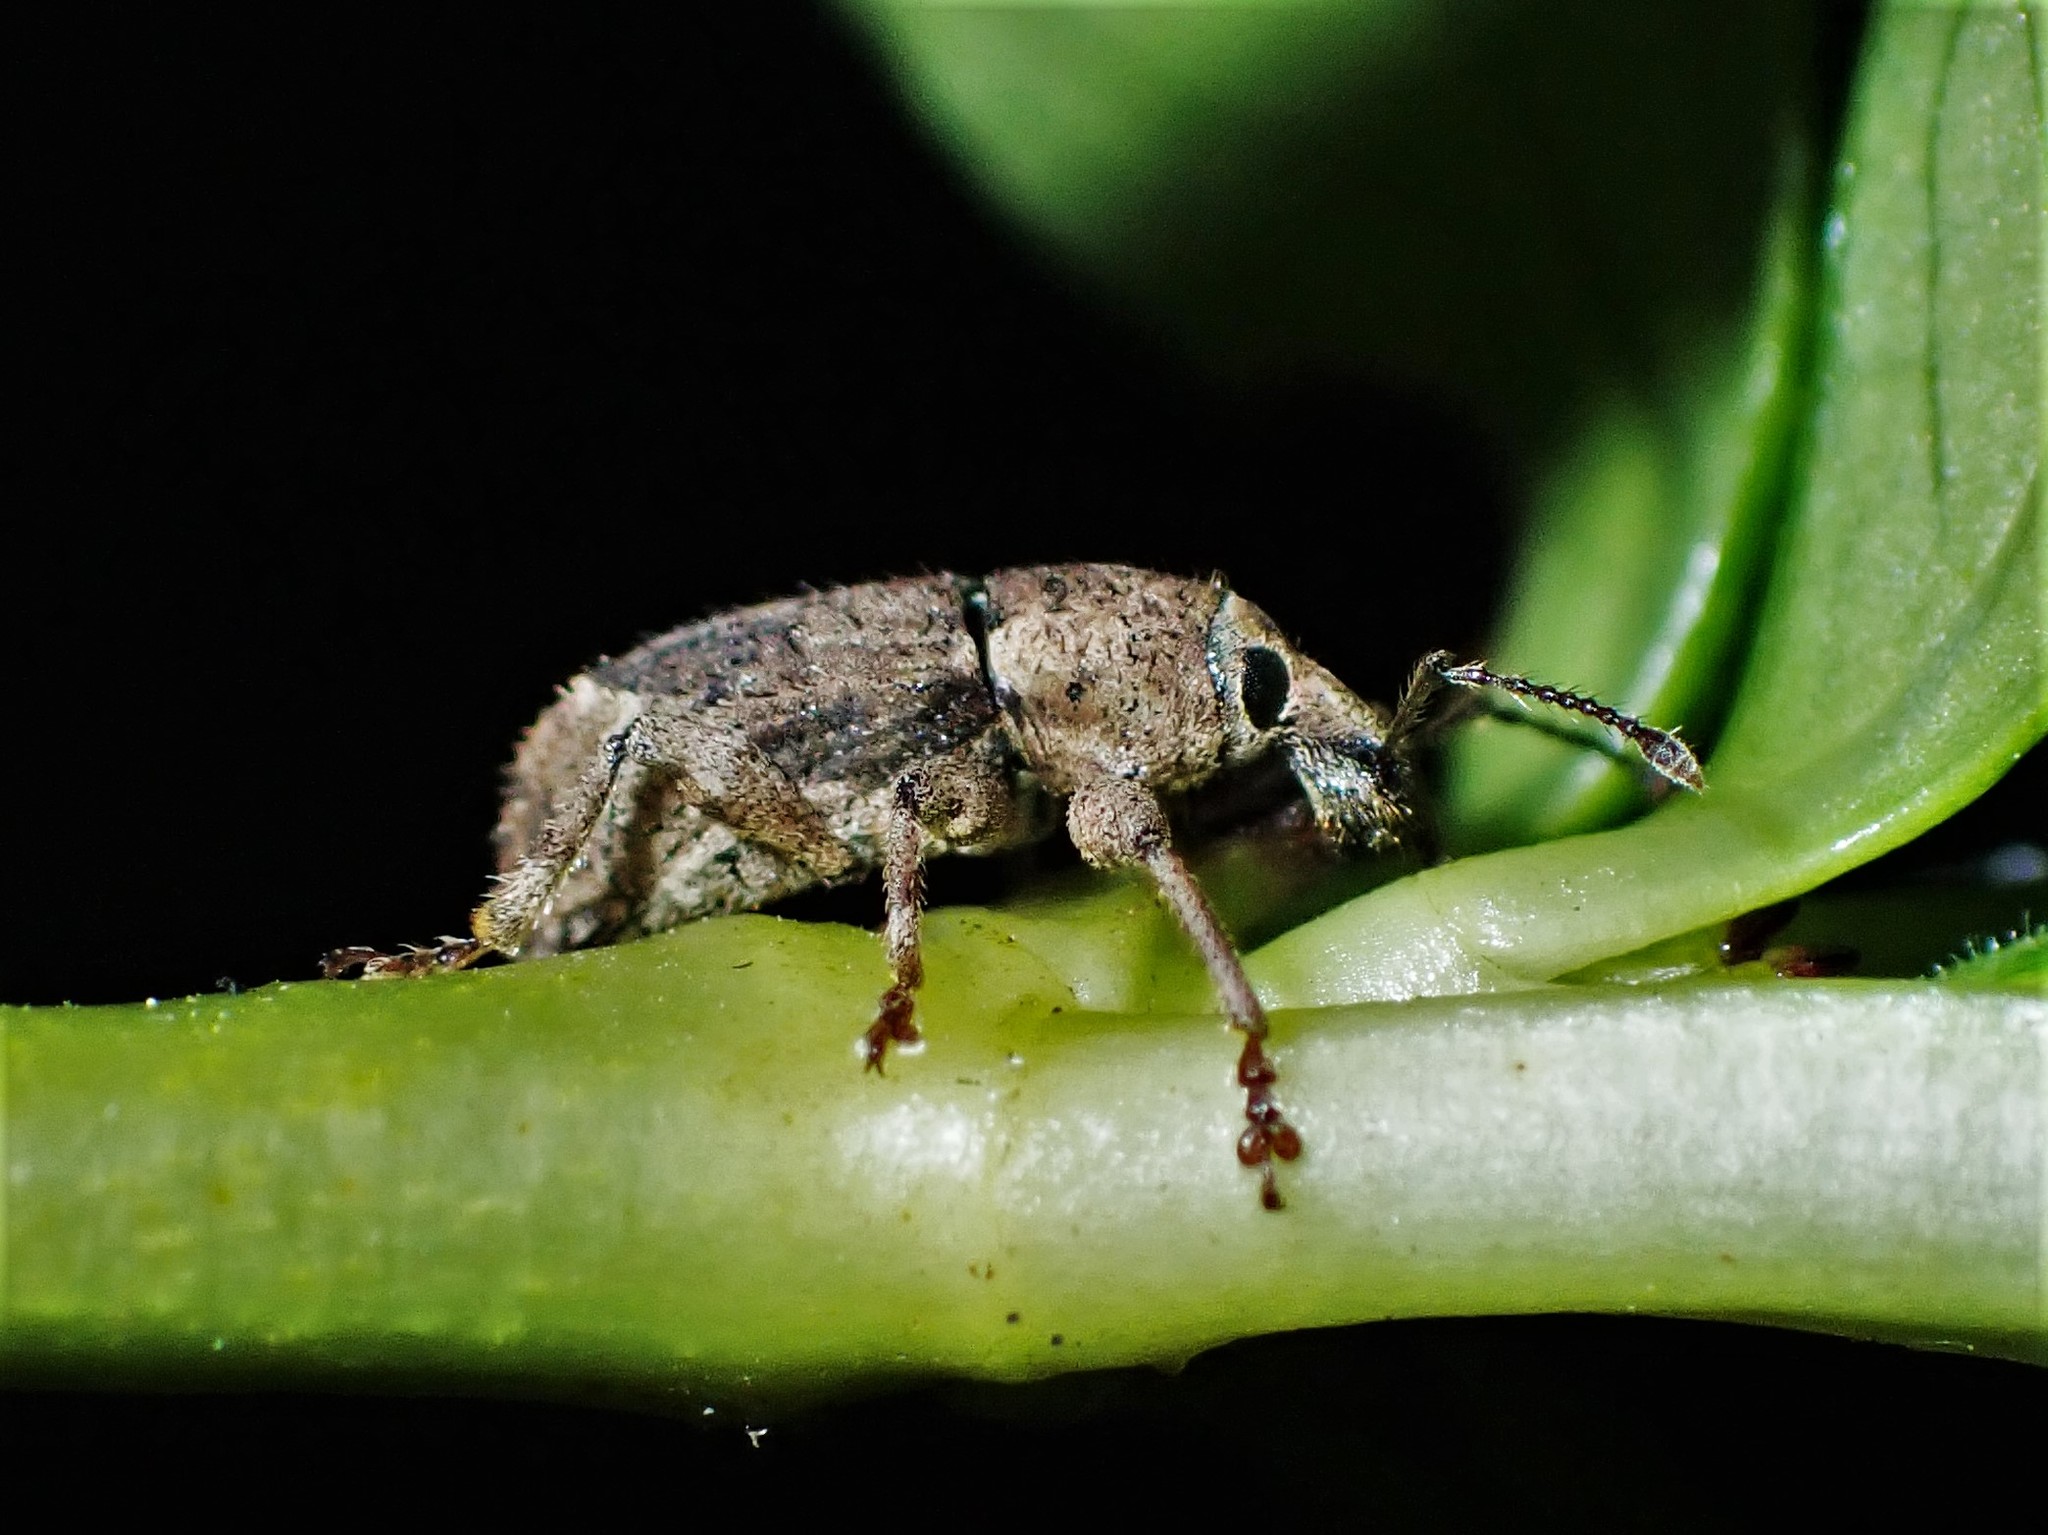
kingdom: Animalia
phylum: Arthropoda
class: Insecta
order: Coleoptera
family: Curculionidae
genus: Chalepistes
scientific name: Chalepistes compressus
